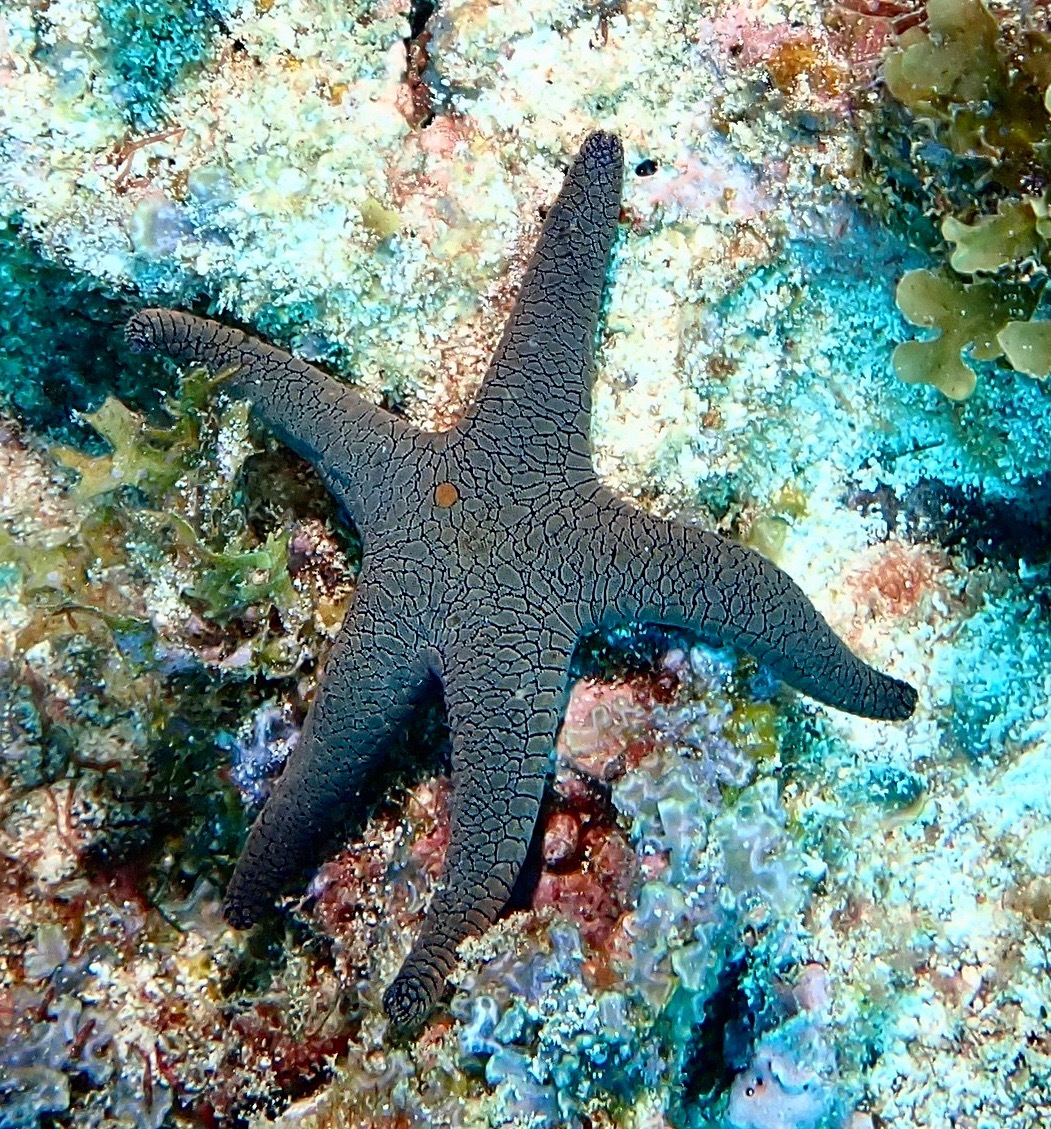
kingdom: Animalia
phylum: Echinodermata
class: Asteroidea
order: Valvatida
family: Goniasteridae
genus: Fromia
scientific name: Fromia indica
